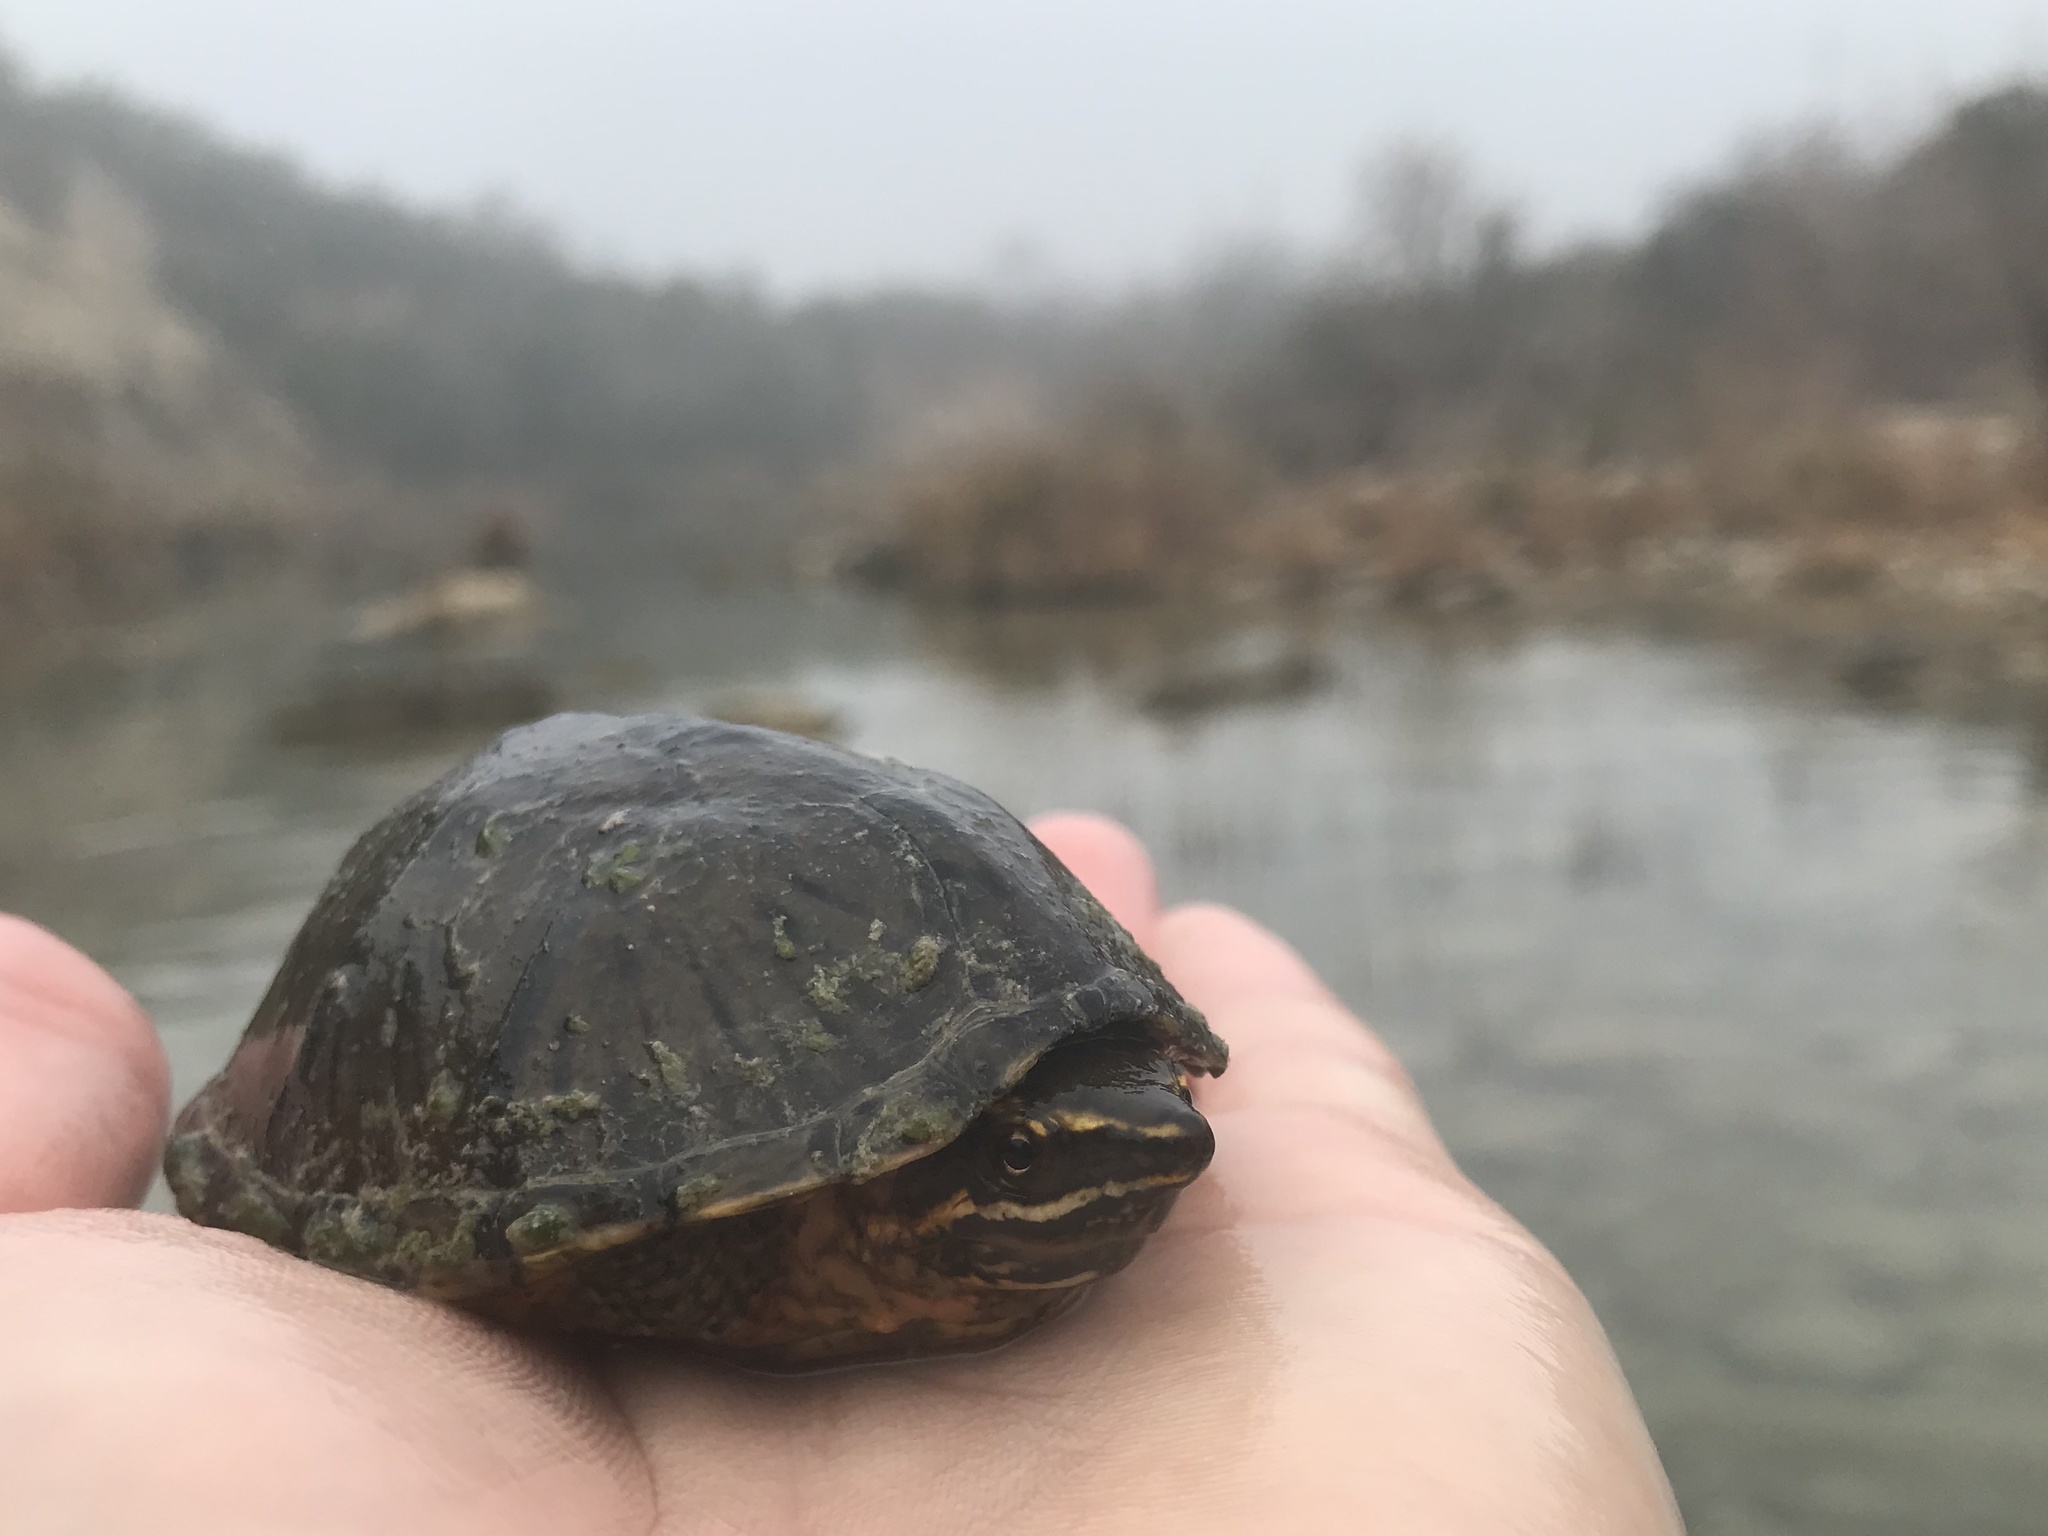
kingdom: Animalia
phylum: Chordata
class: Testudines
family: Kinosternidae
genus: Sternotherus
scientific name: Sternotherus odoratus
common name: Common musk turtle
